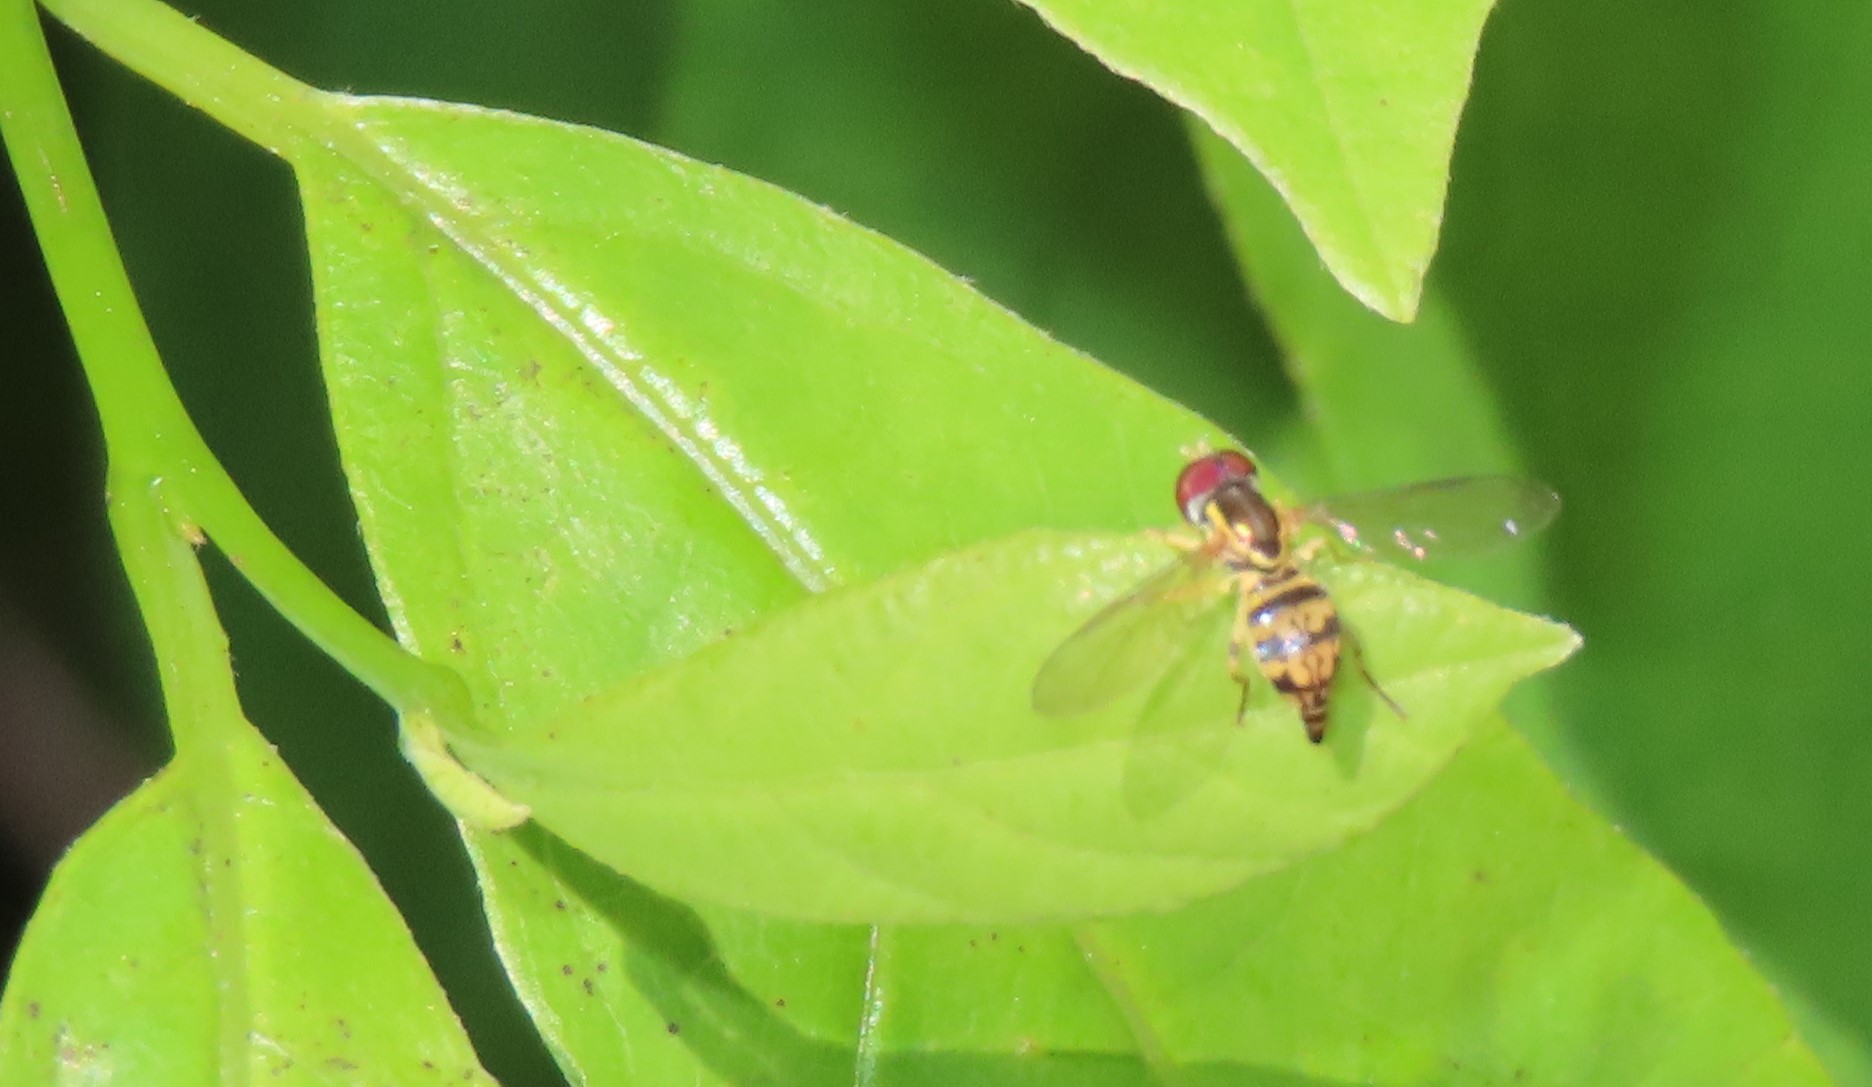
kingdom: Animalia
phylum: Arthropoda
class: Insecta
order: Diptera
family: Syrphidae
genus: Toxomerus
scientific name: Toxomerus geminatus
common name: Eastern calligrapher
